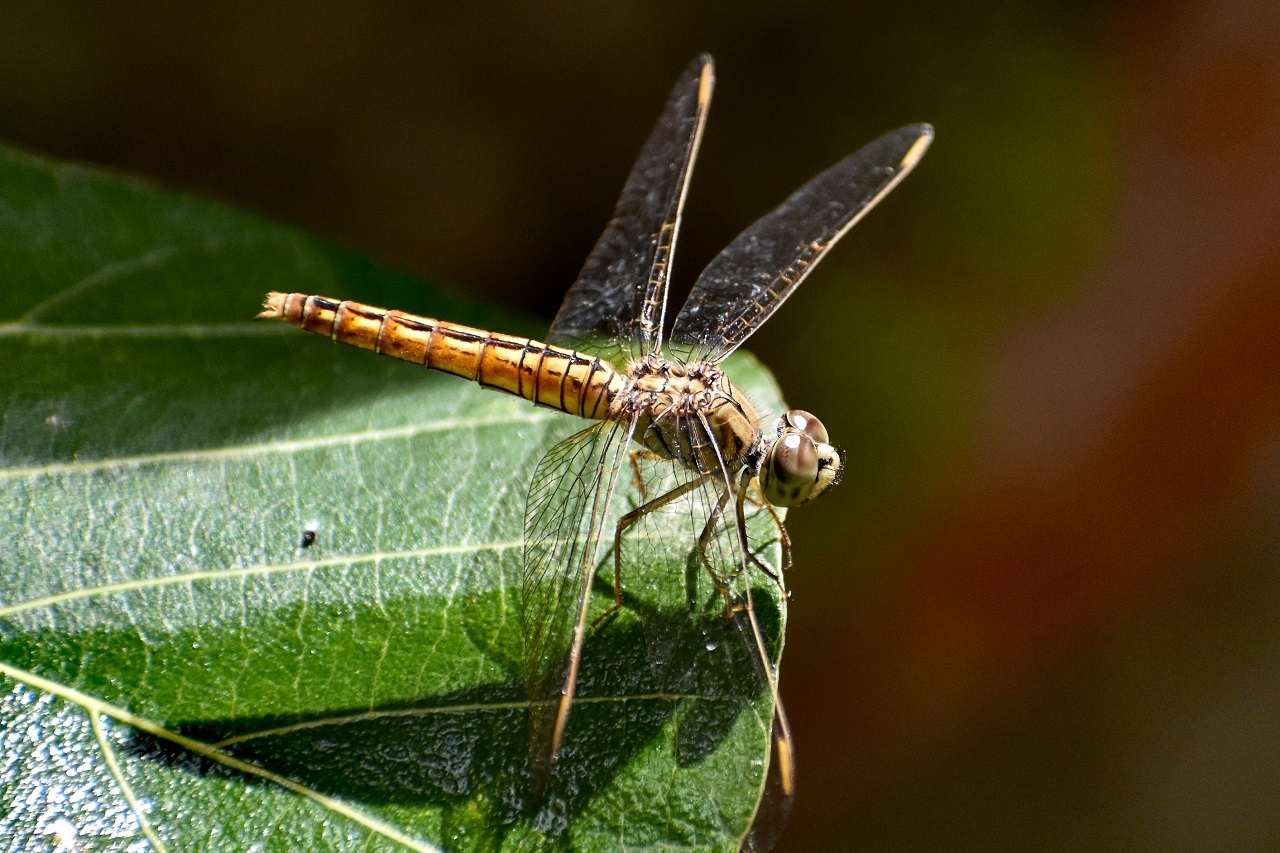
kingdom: Animalia
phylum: Arthropoda
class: Insecta
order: Odonata
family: Libellulidae
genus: Brachythemis
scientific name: Brachythemis contaminata
